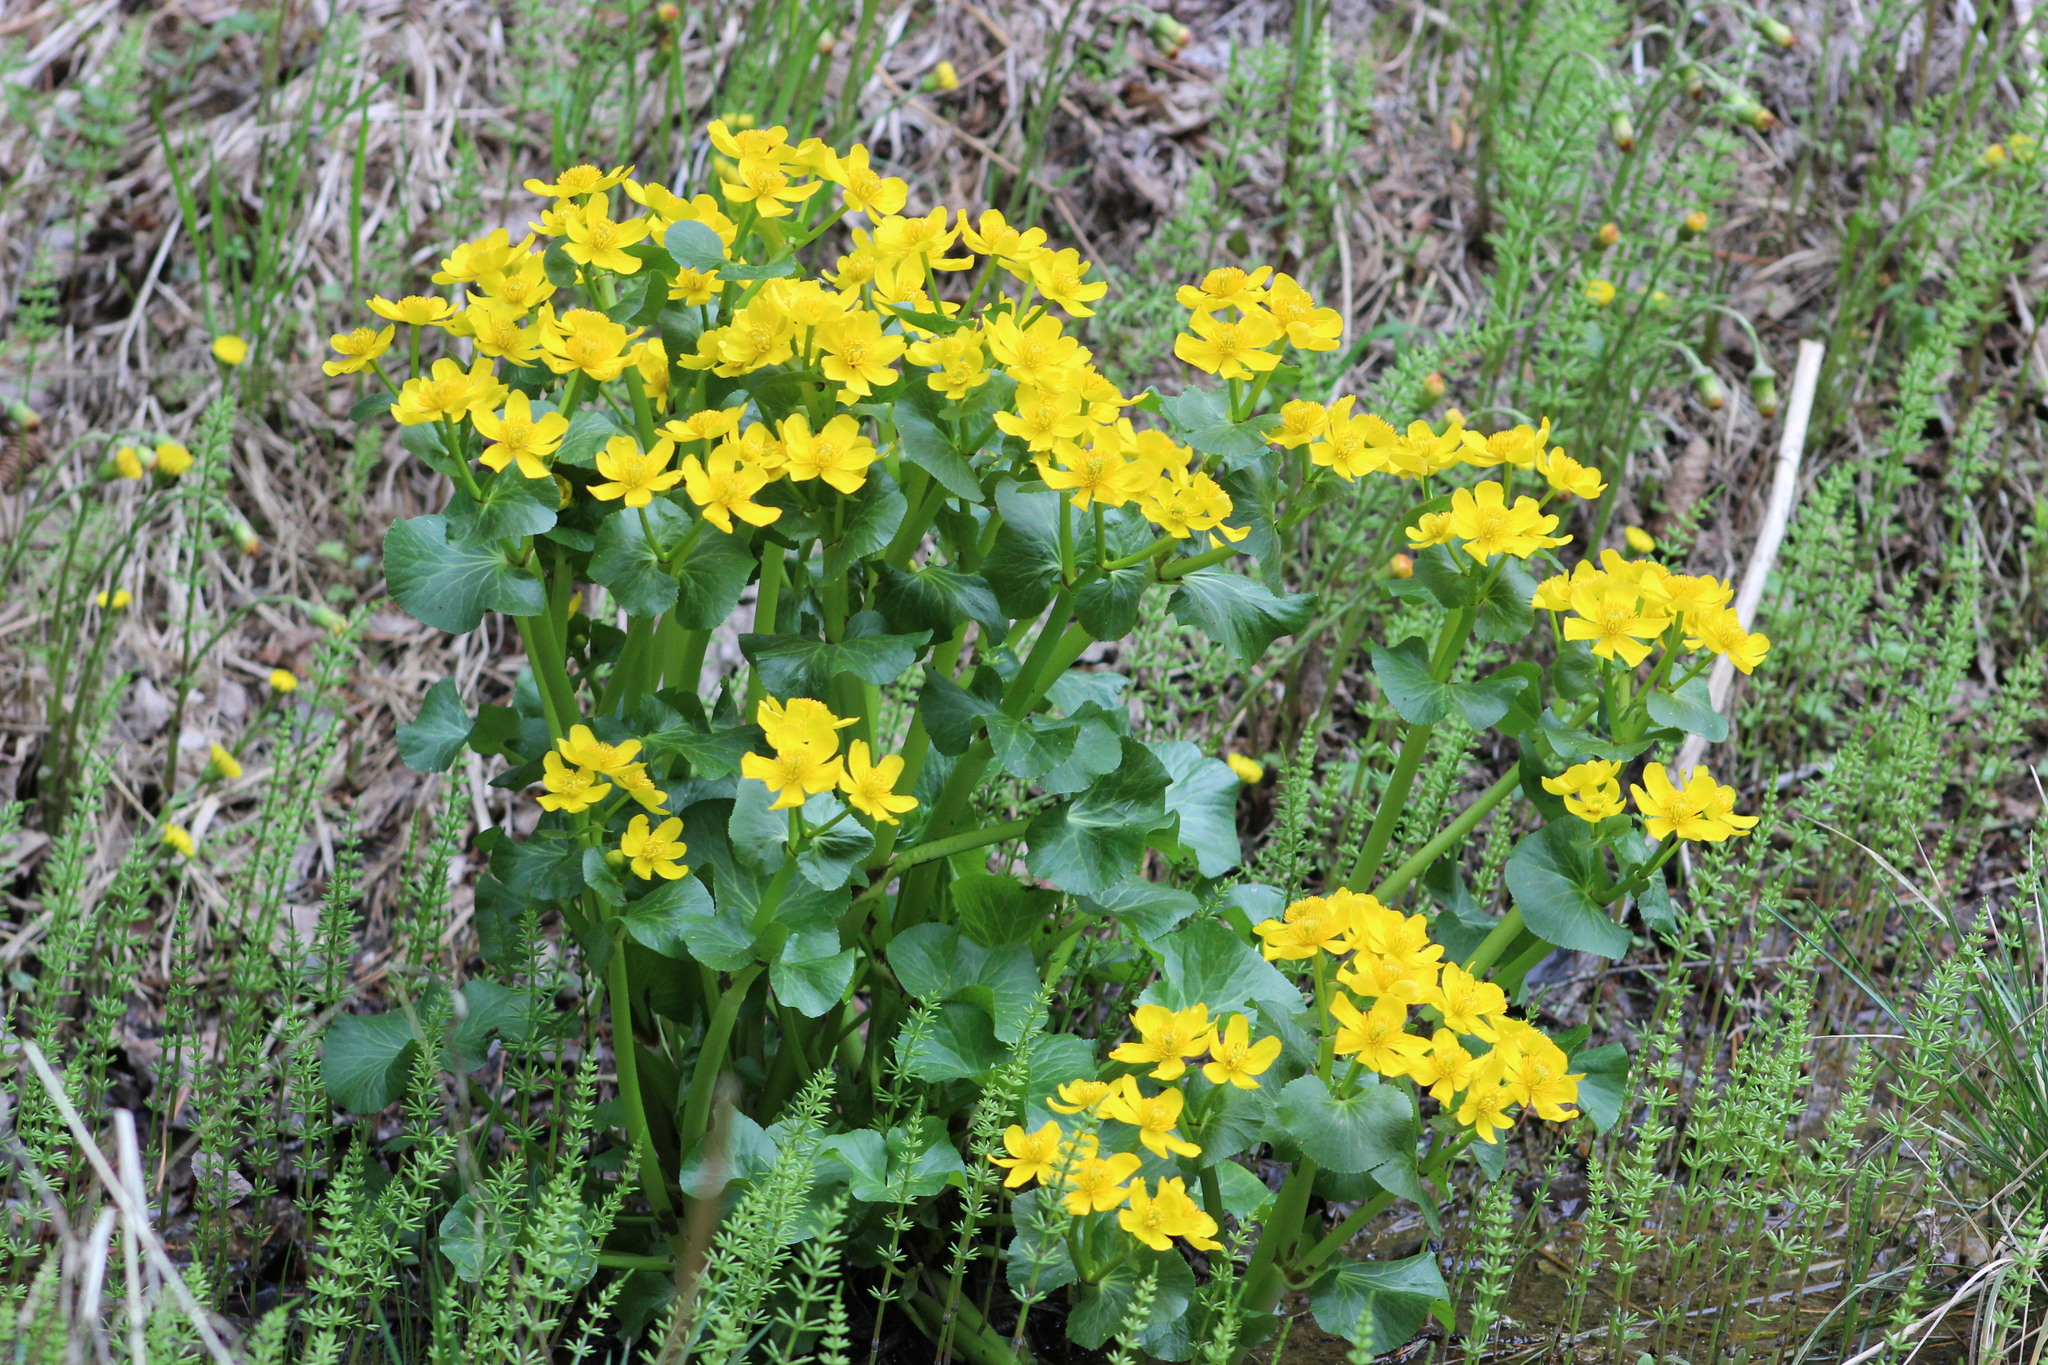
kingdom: Plantae
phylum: Tracheophyta
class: Magnoliopsida
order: Ranunculales
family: Ranunculaceae
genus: Caltha
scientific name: Caltha palustris
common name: Marsh marigold
